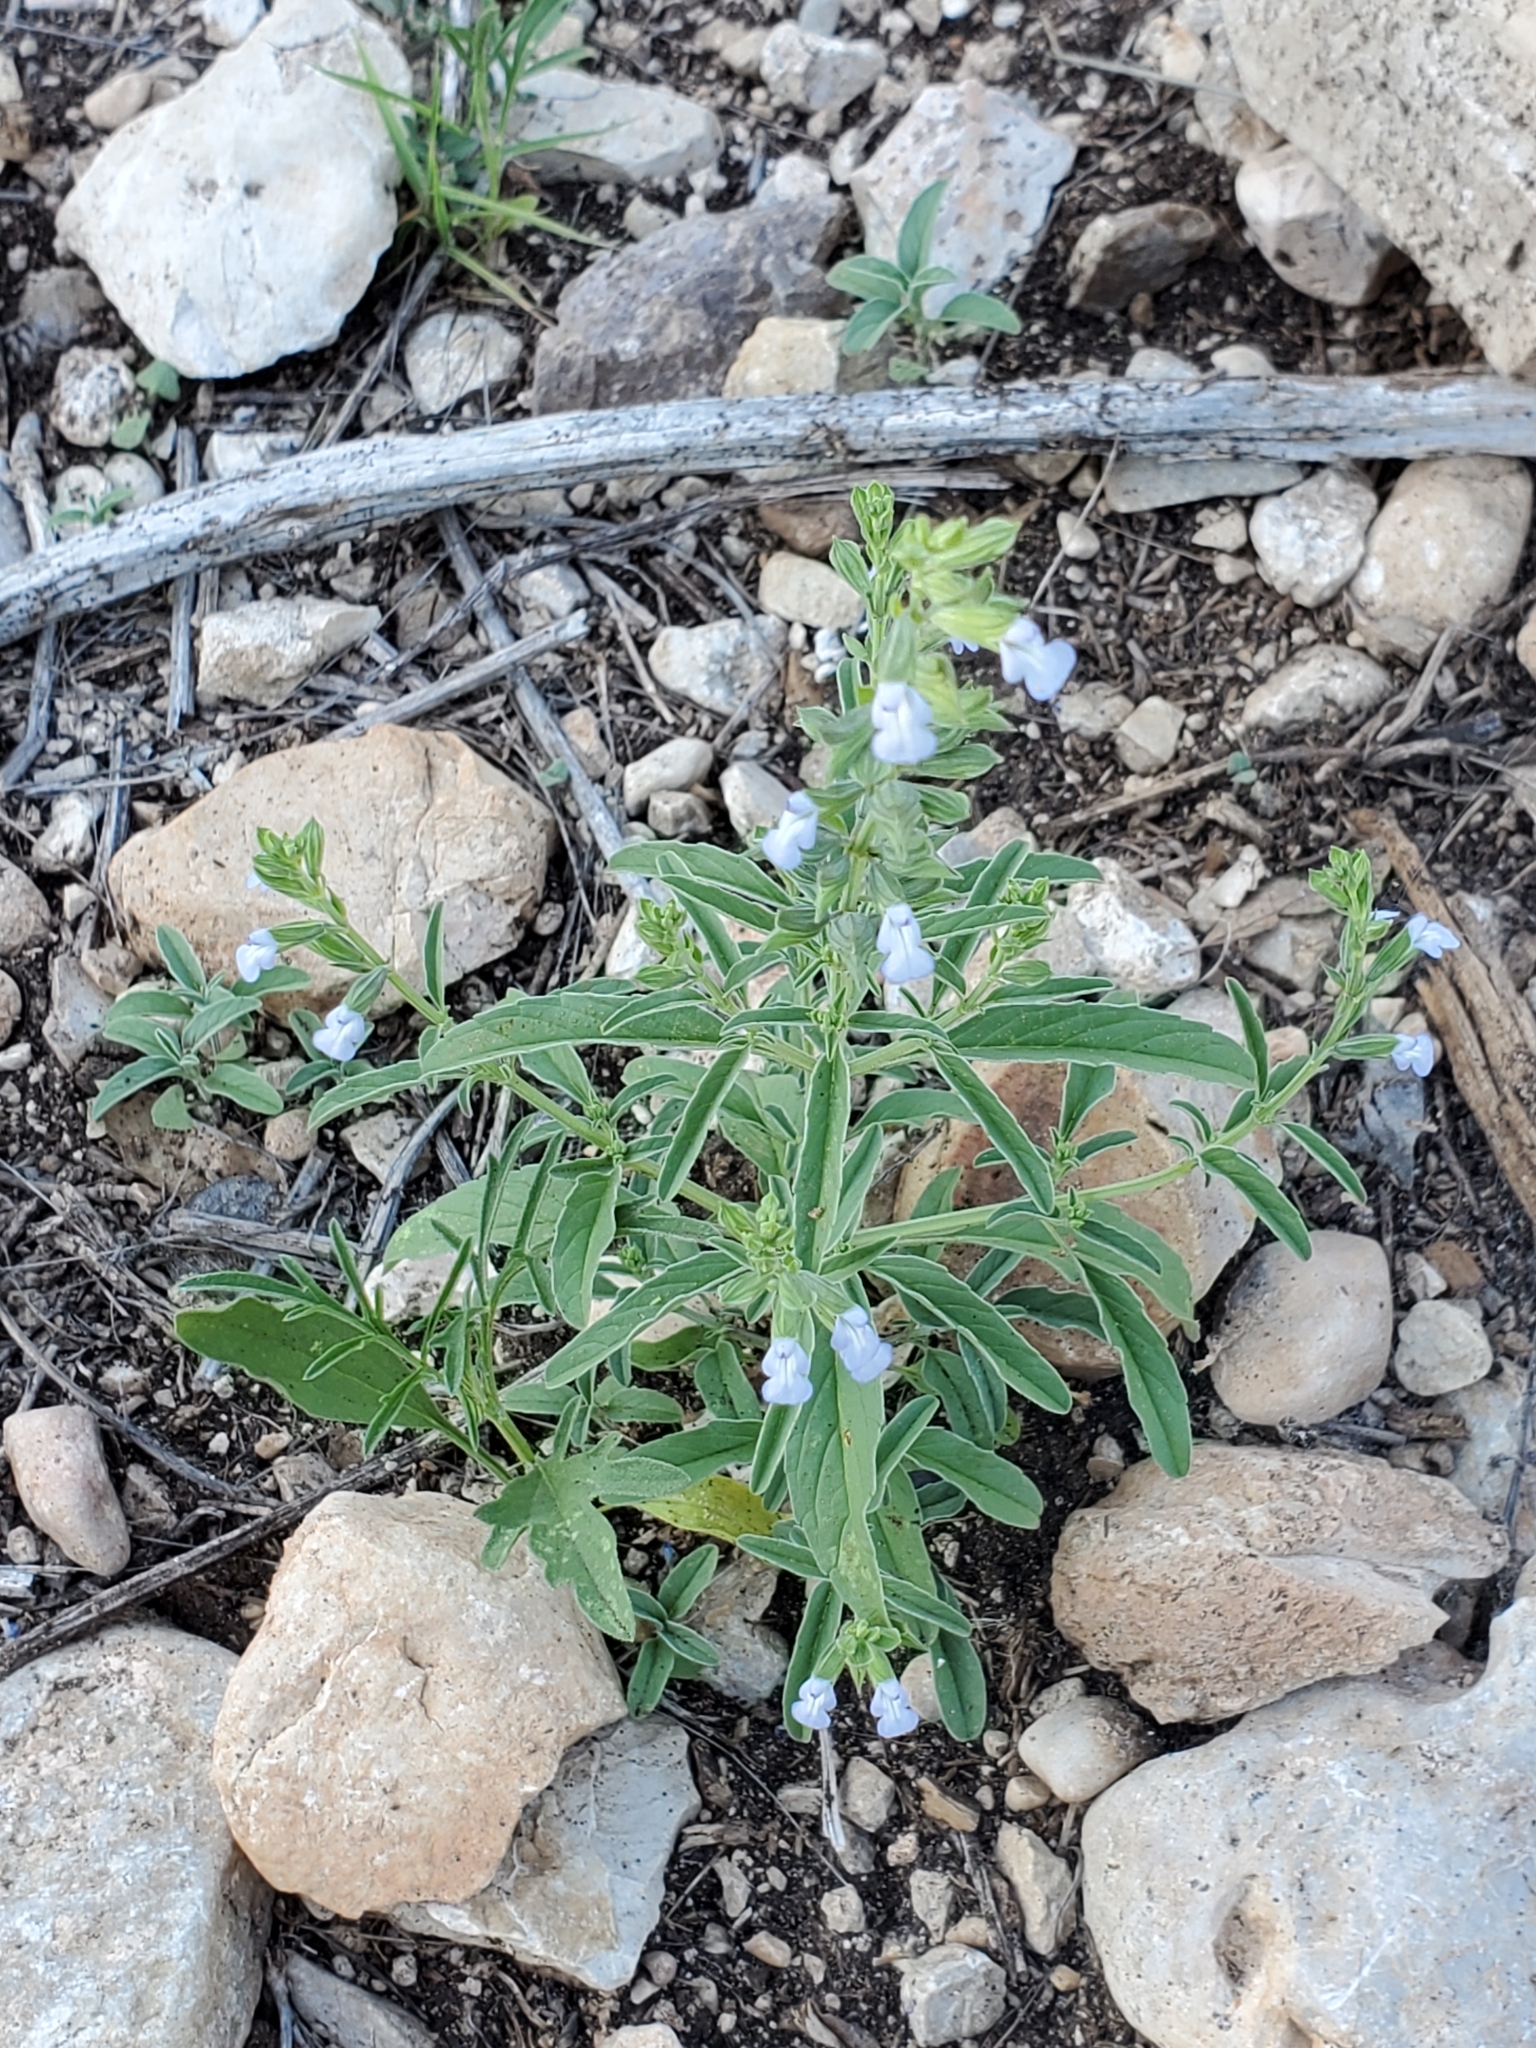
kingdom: Plantae
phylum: Tracheophyta
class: Magnoliopsida
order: Lamiales
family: Lamiaceae
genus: Salvia
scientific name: Salvia reflexa
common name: Mintweed
